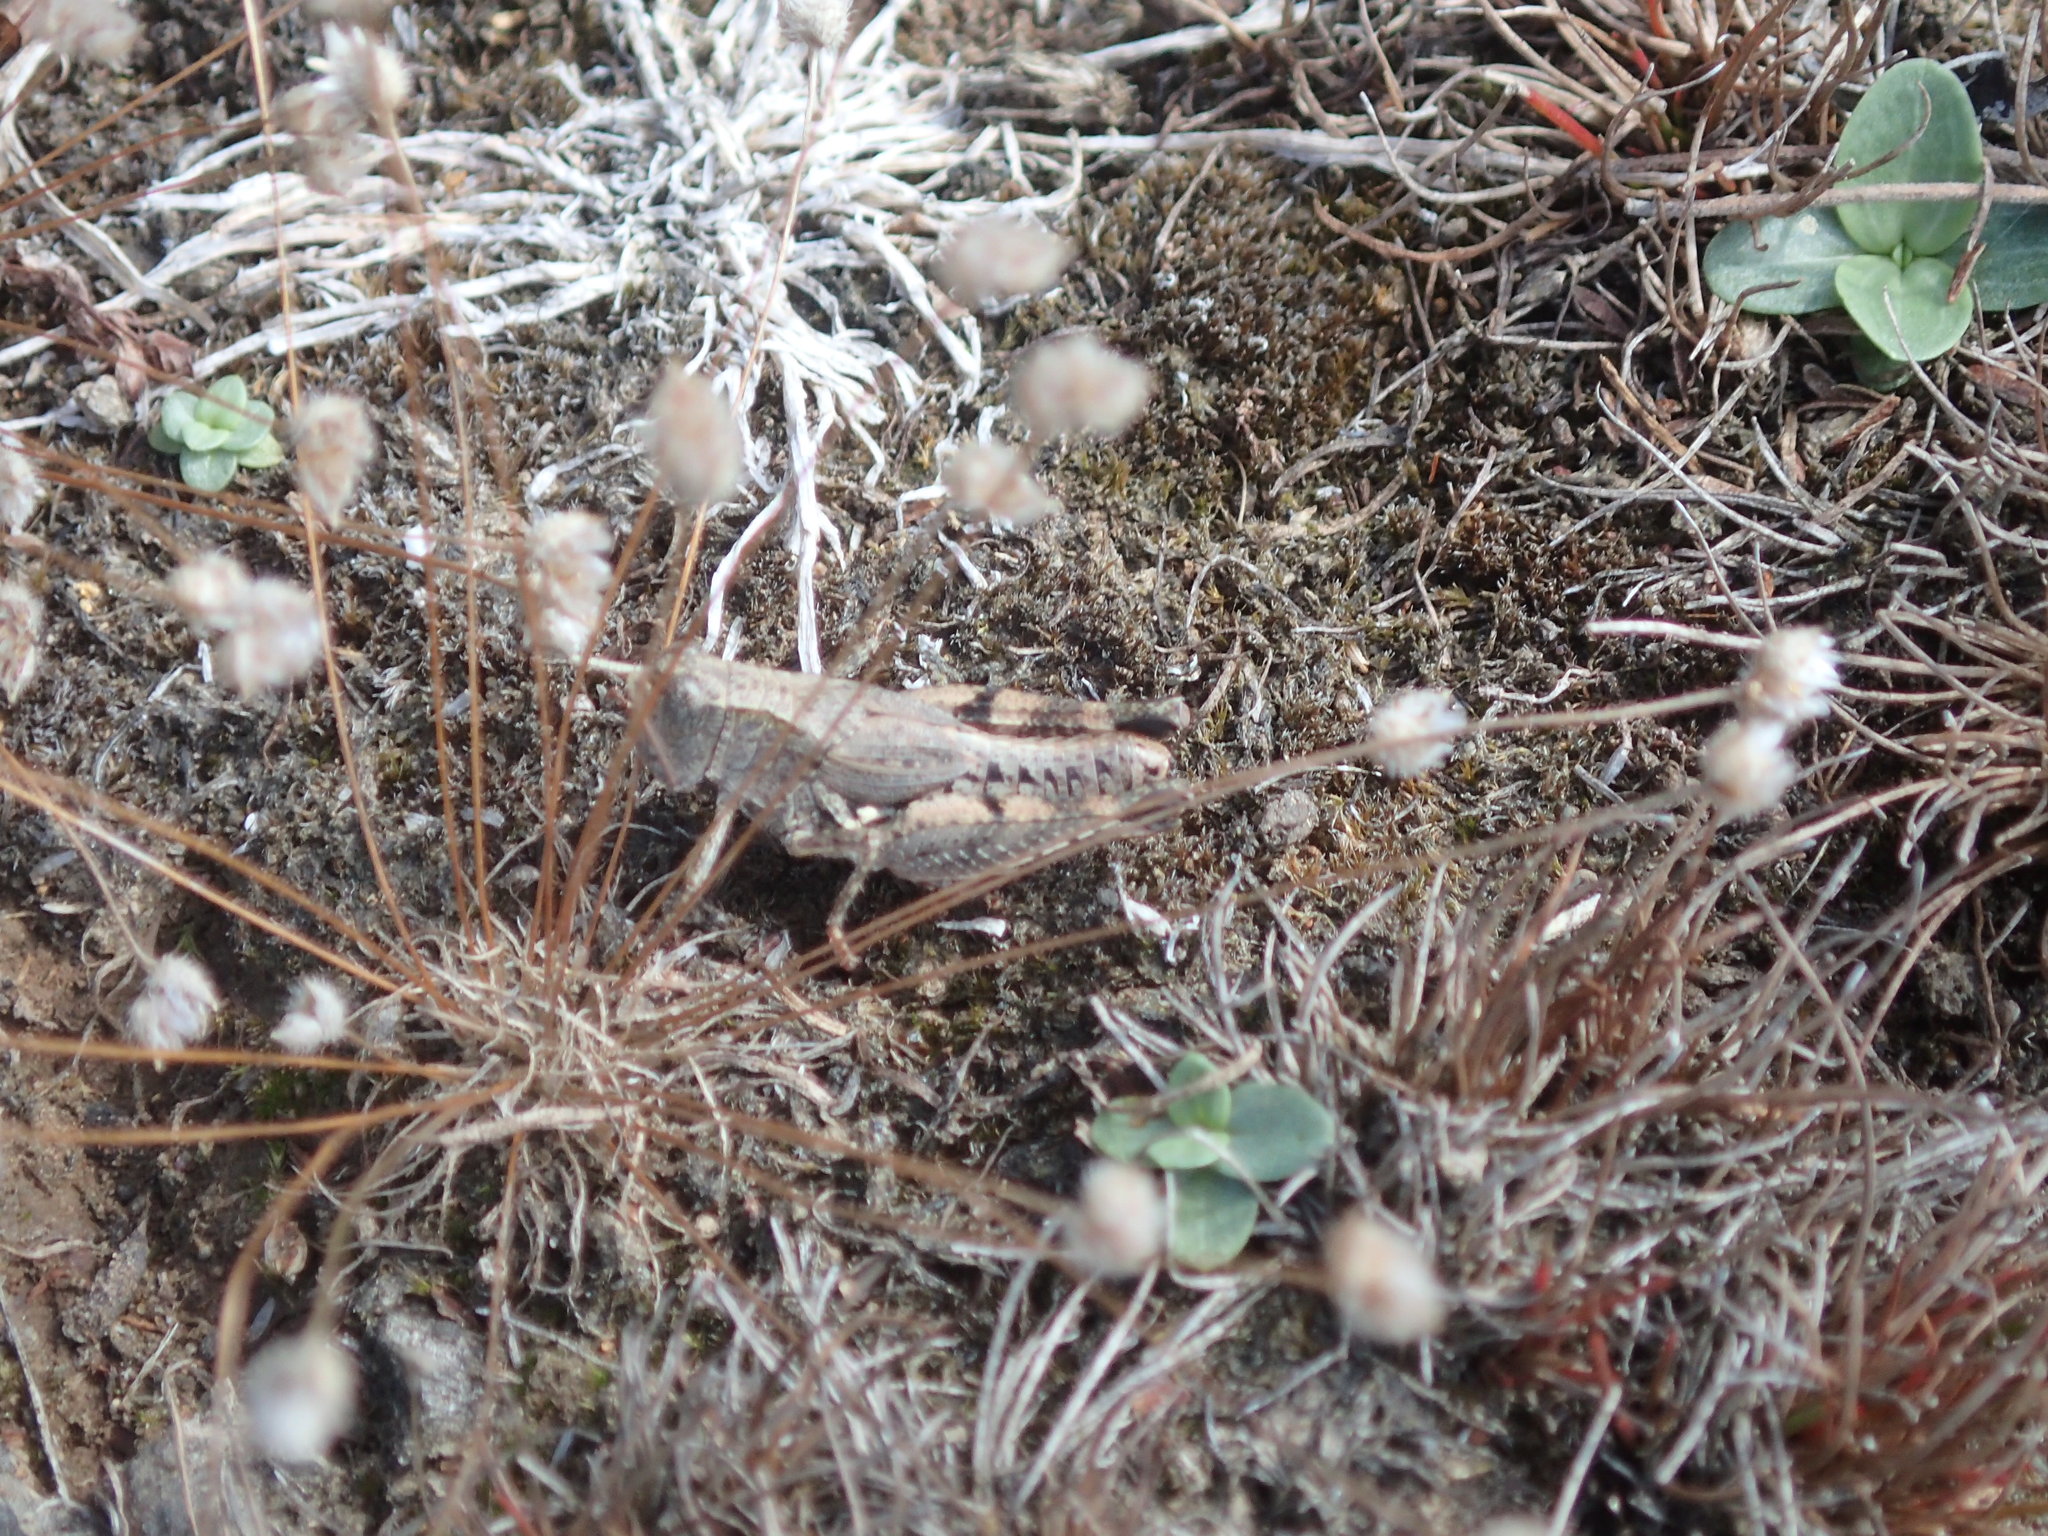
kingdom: Animalia
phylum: Arthropoda
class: Insecta
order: Orthoptera
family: Acrididae
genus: Phaulacridium
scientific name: Phaulacridium vittatum
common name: Wingless grasshopper
